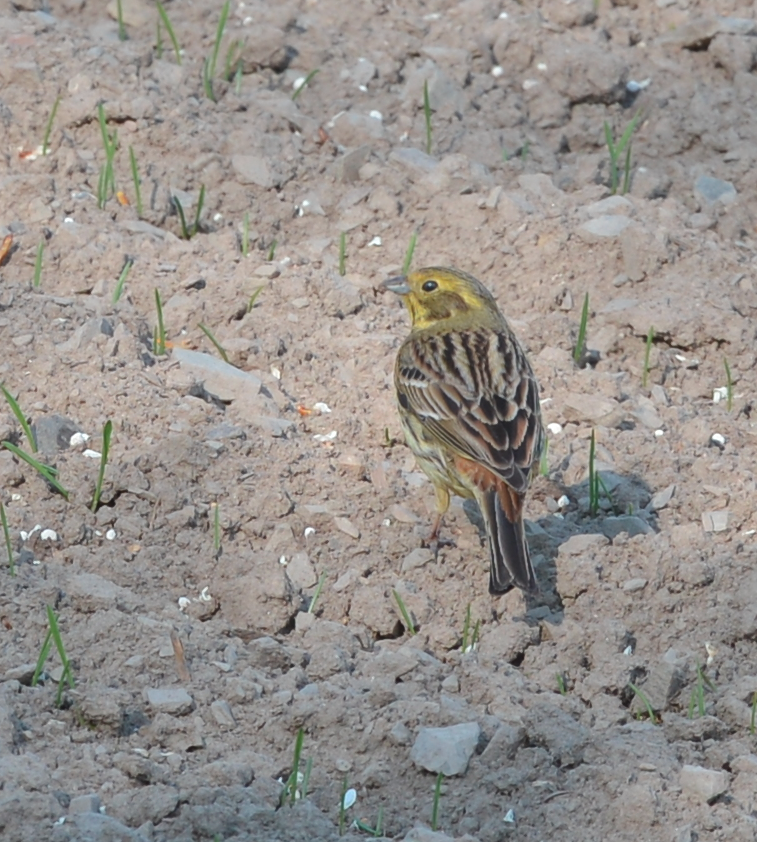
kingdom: Animalia
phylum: Chordata
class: Aves
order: Passeriformes
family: Emberizidae
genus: Emberiza
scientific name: Emberiza citrinella
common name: Yellowhammer
